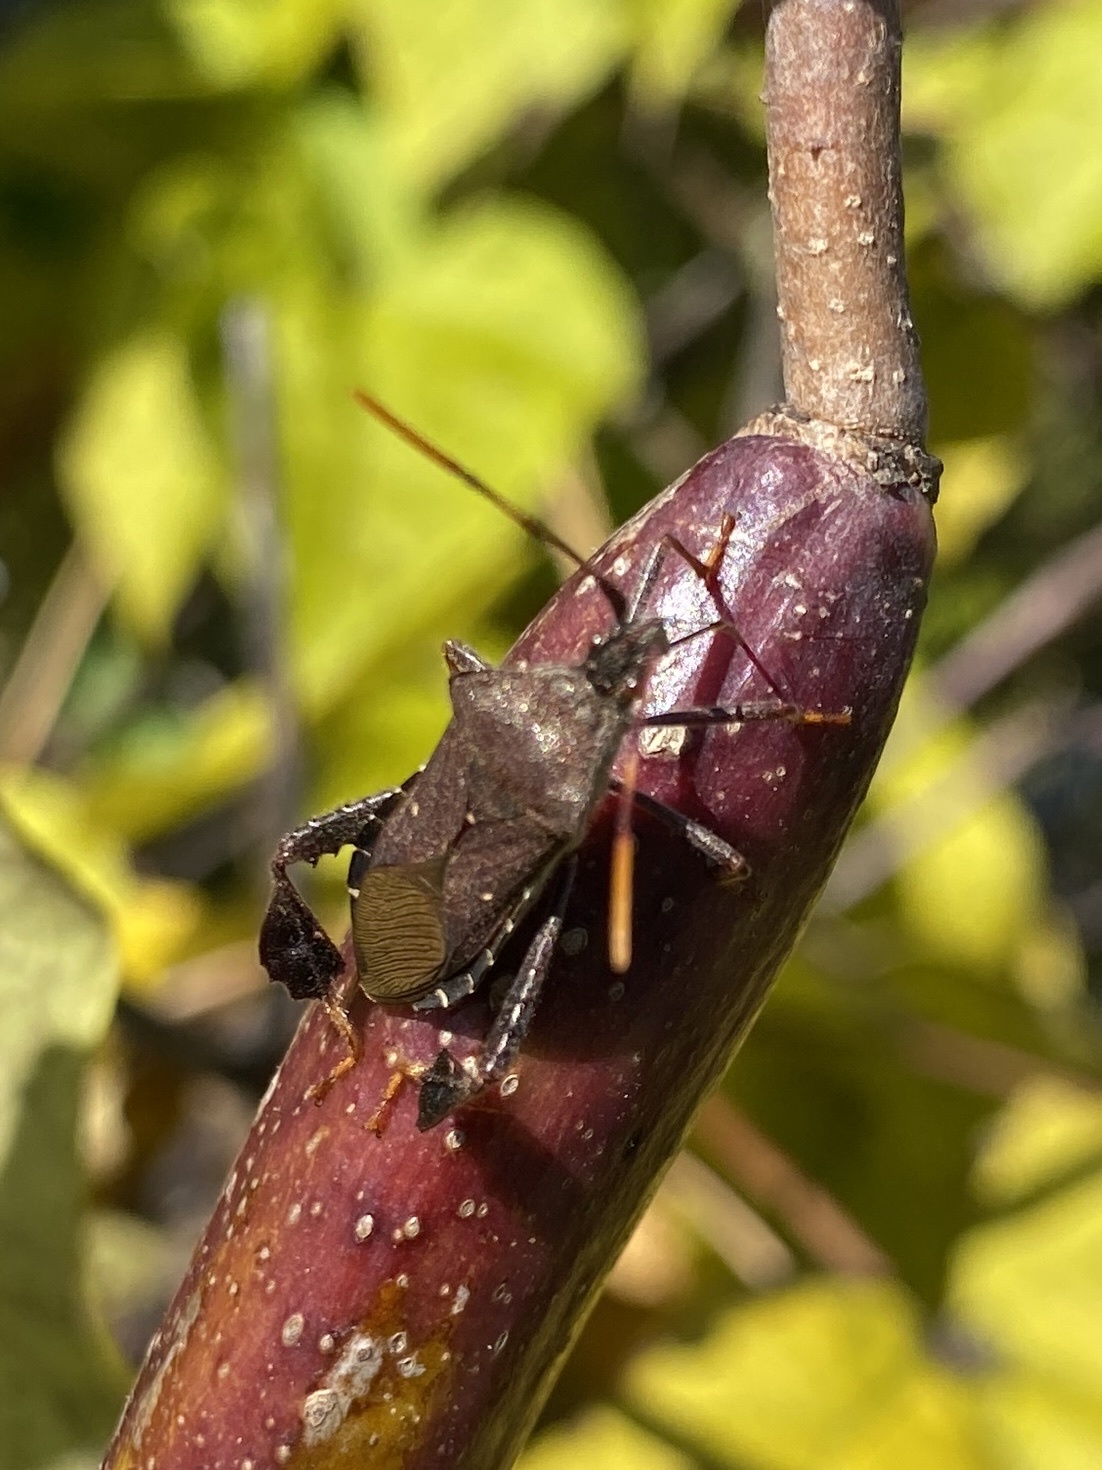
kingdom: Animalia
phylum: Arthropoda
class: Insecta
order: Hemiptera
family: Coreidae
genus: Leptoglossus
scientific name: Leptoglossus oppositus
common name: Northern leaf-footed bug
